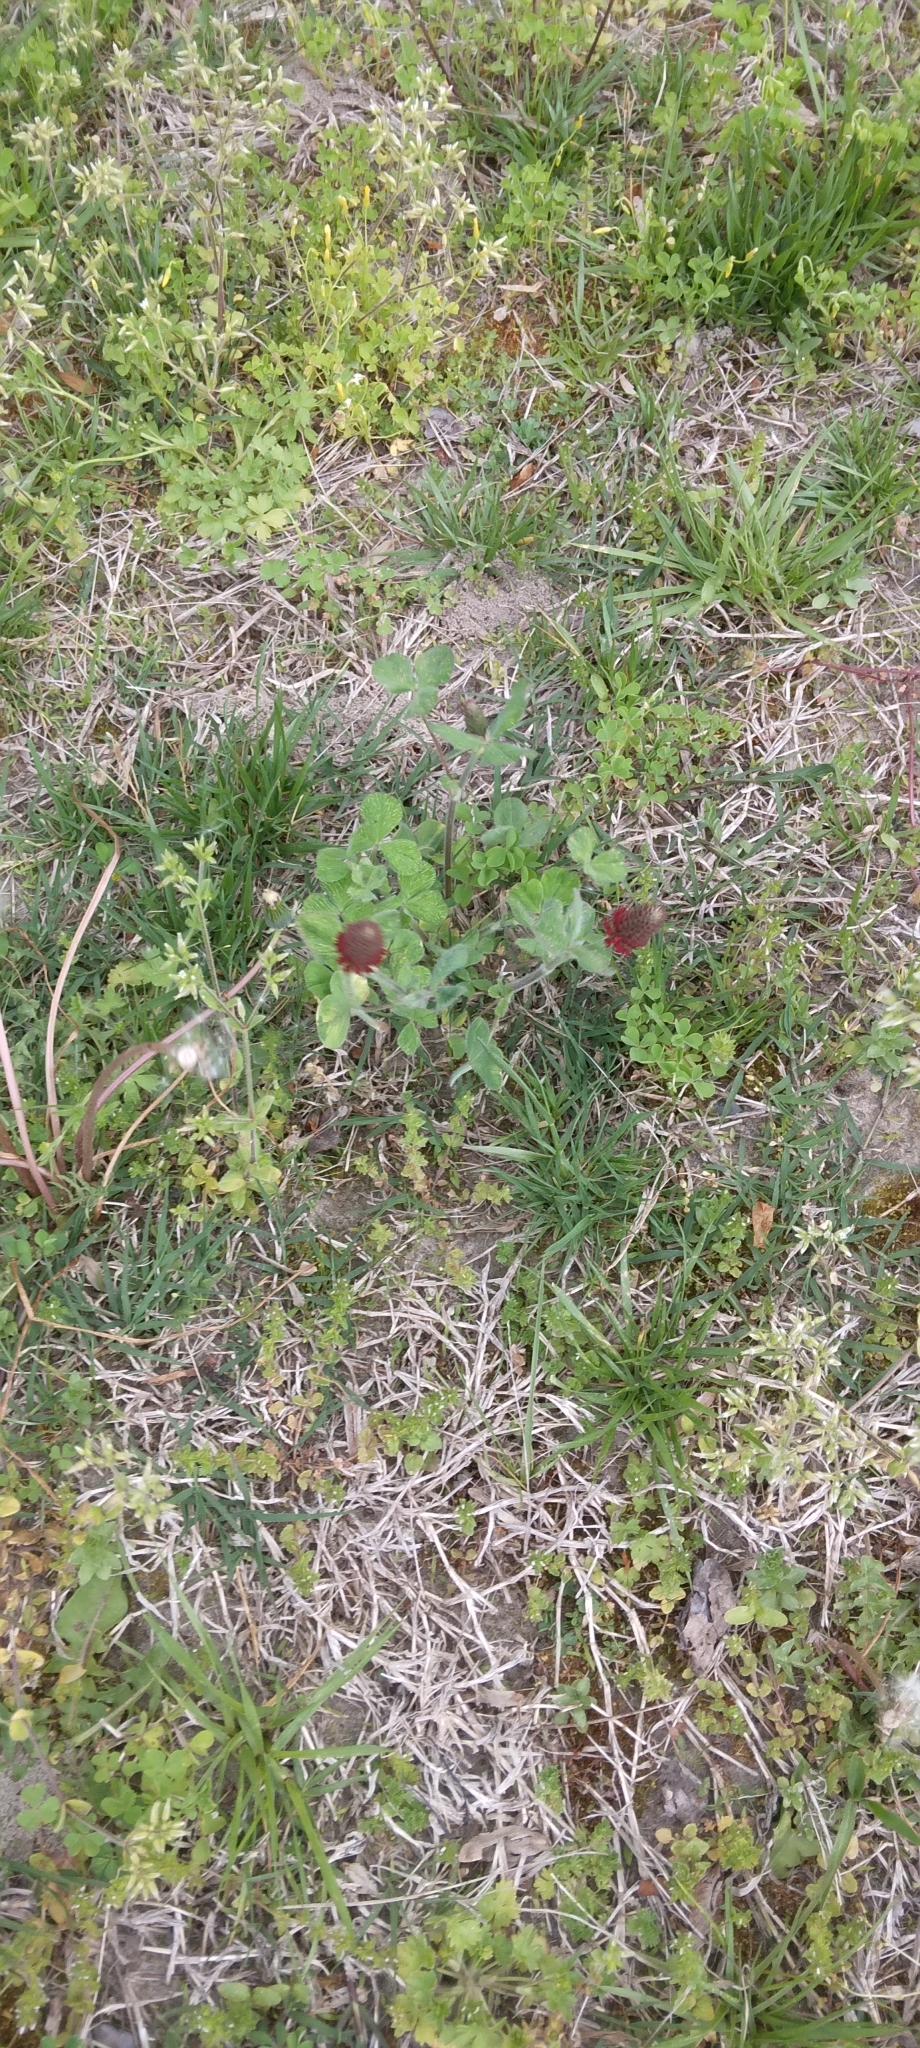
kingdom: Plantae
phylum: Tracheophyta
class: Magnoliopsida
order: Fabales
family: Fabaceae
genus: Trifolium
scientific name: Trifolium incarnatum
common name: Crimson clover
